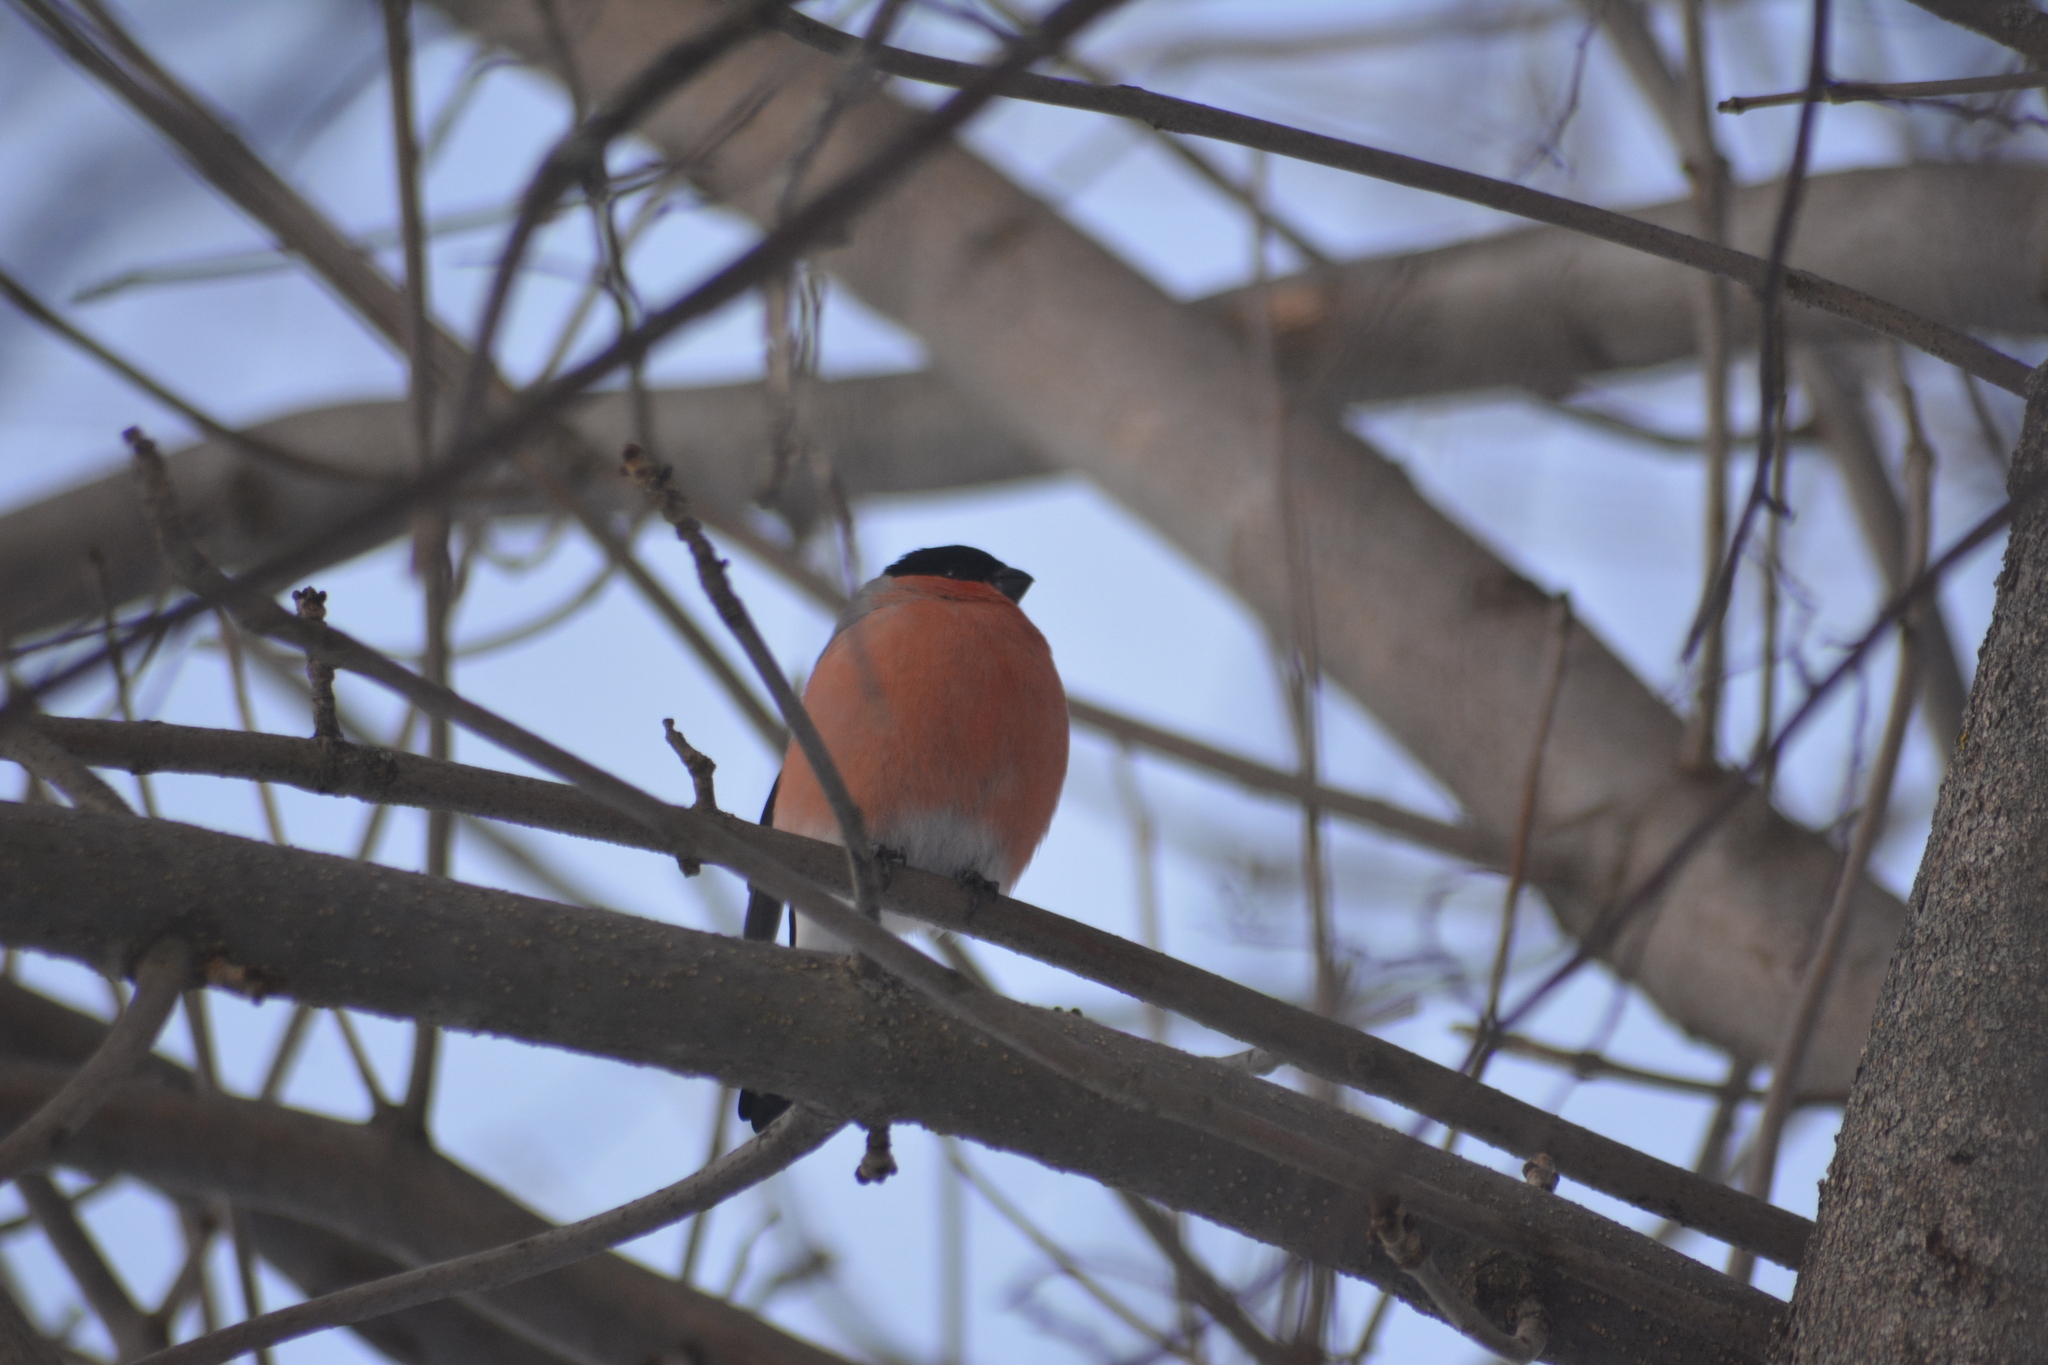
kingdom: Animalia
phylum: Chordata
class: Aves
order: Passeriformes
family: Fringillidae
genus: Pyrrhula
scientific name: Pyrrhula pyrrhula
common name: Eurasian bullfinch
